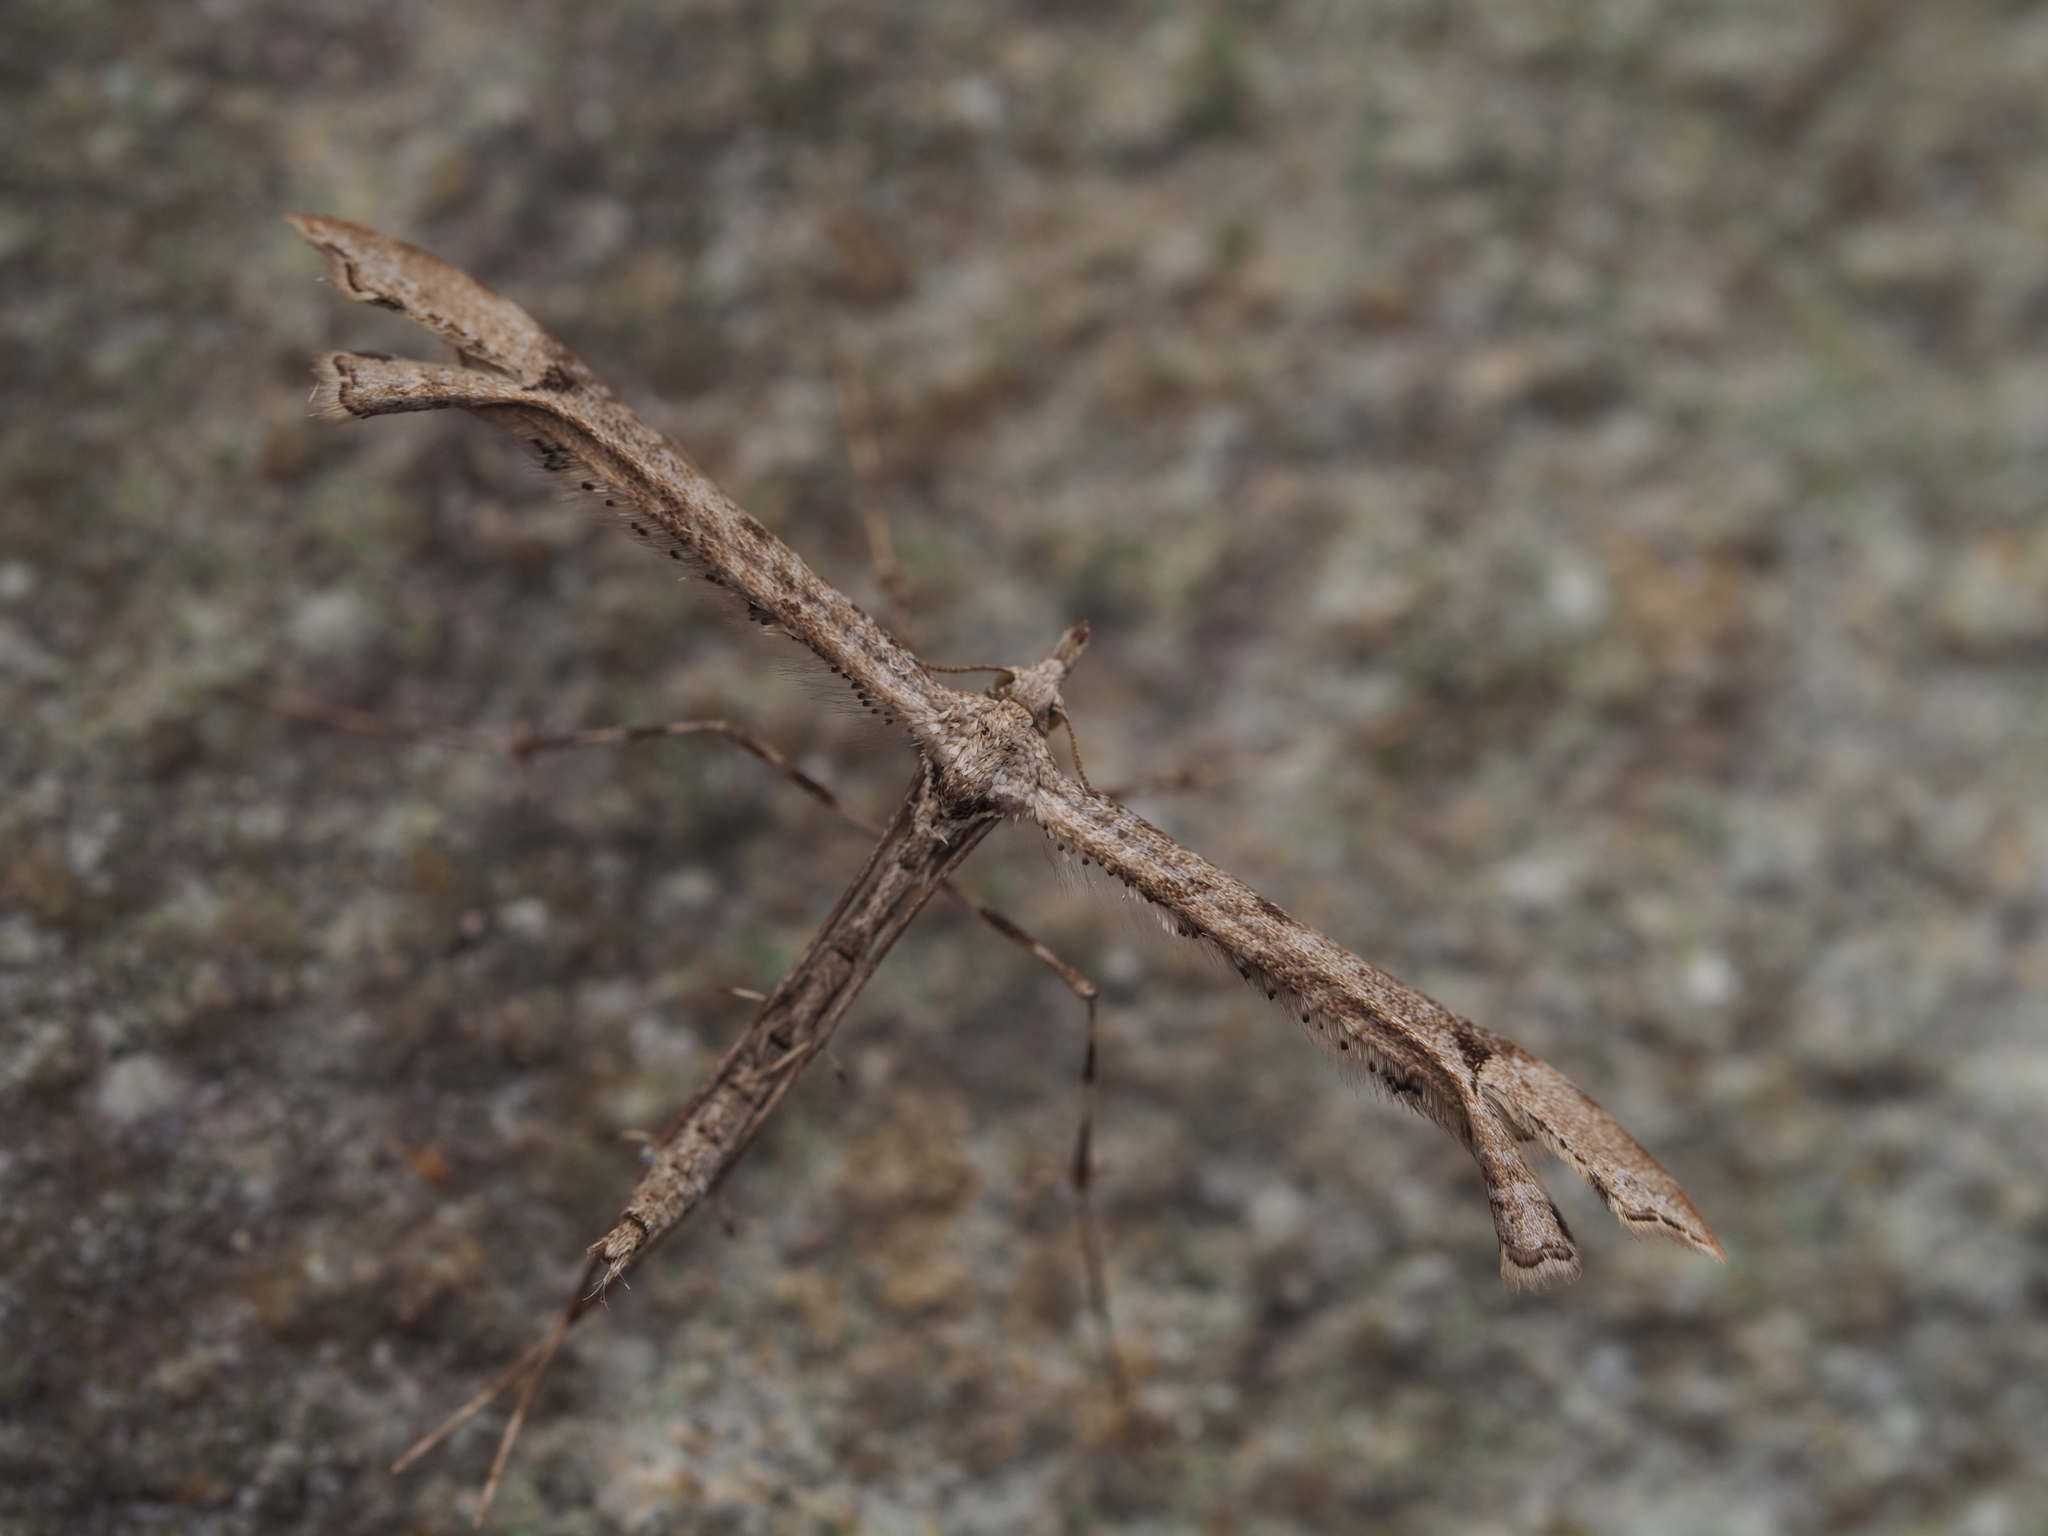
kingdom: Animalia
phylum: Arthropoda
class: Insecta
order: Lepidoptera
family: Pterophoridae
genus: Amblyptilia
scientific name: Amblyptilia repletalis
